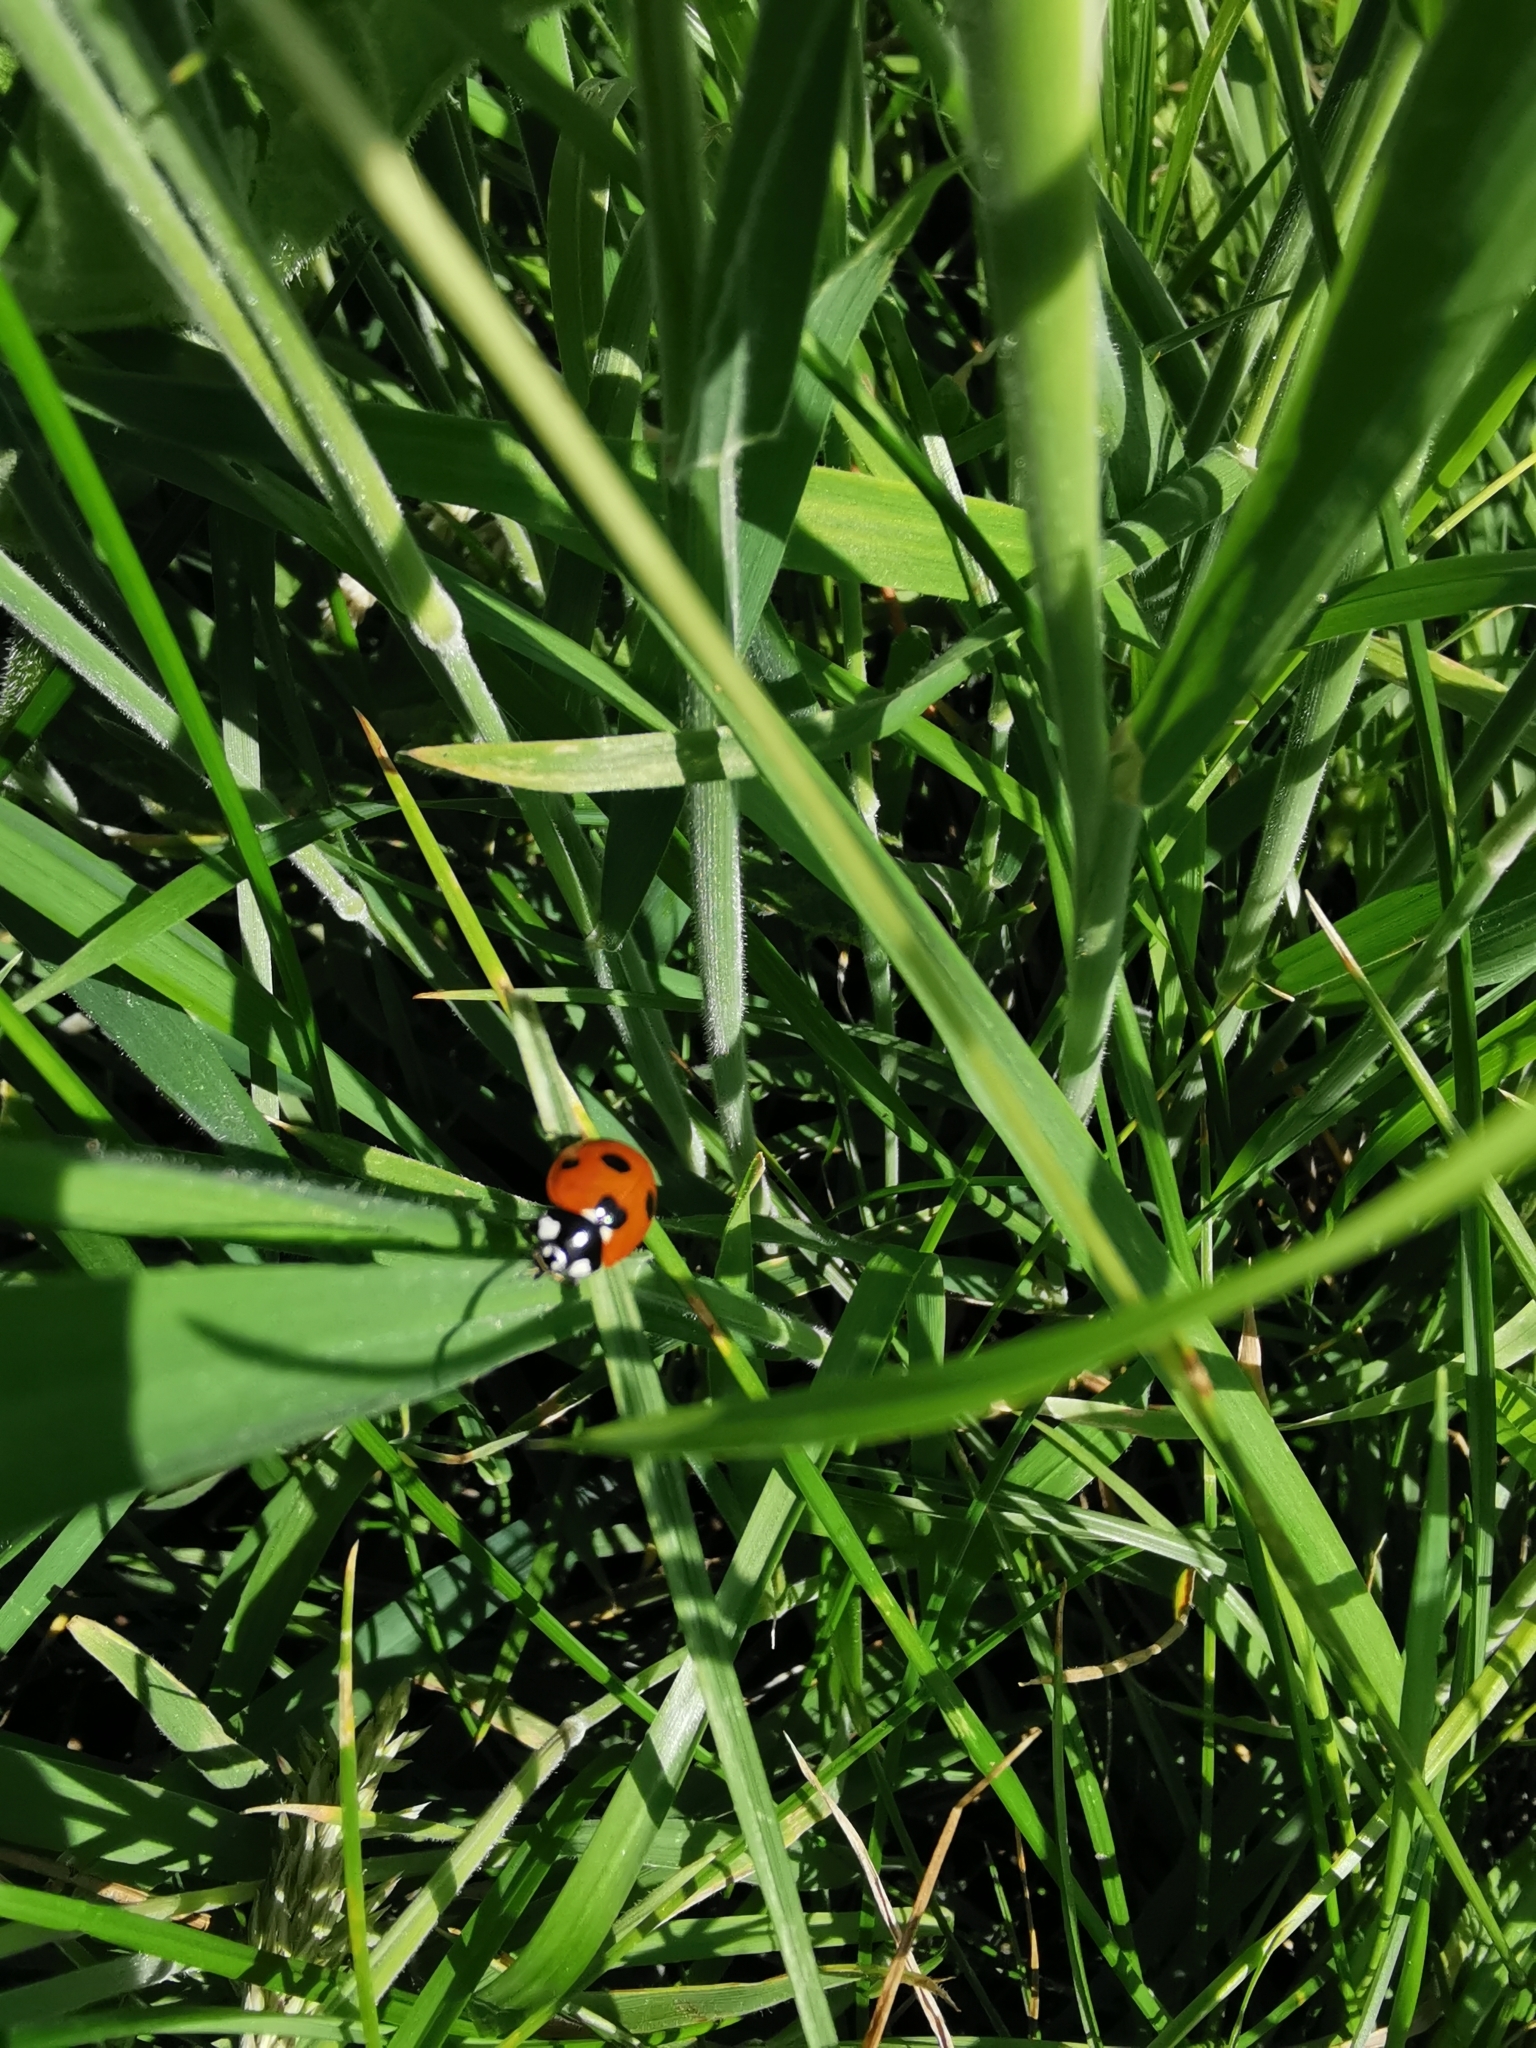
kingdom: Animalia
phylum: Arthropoda
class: Insecta
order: Coleoptera
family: Coccinellidae
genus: Coccinella
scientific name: Coccinella septempunctata
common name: Sevenspotted lady beetle
